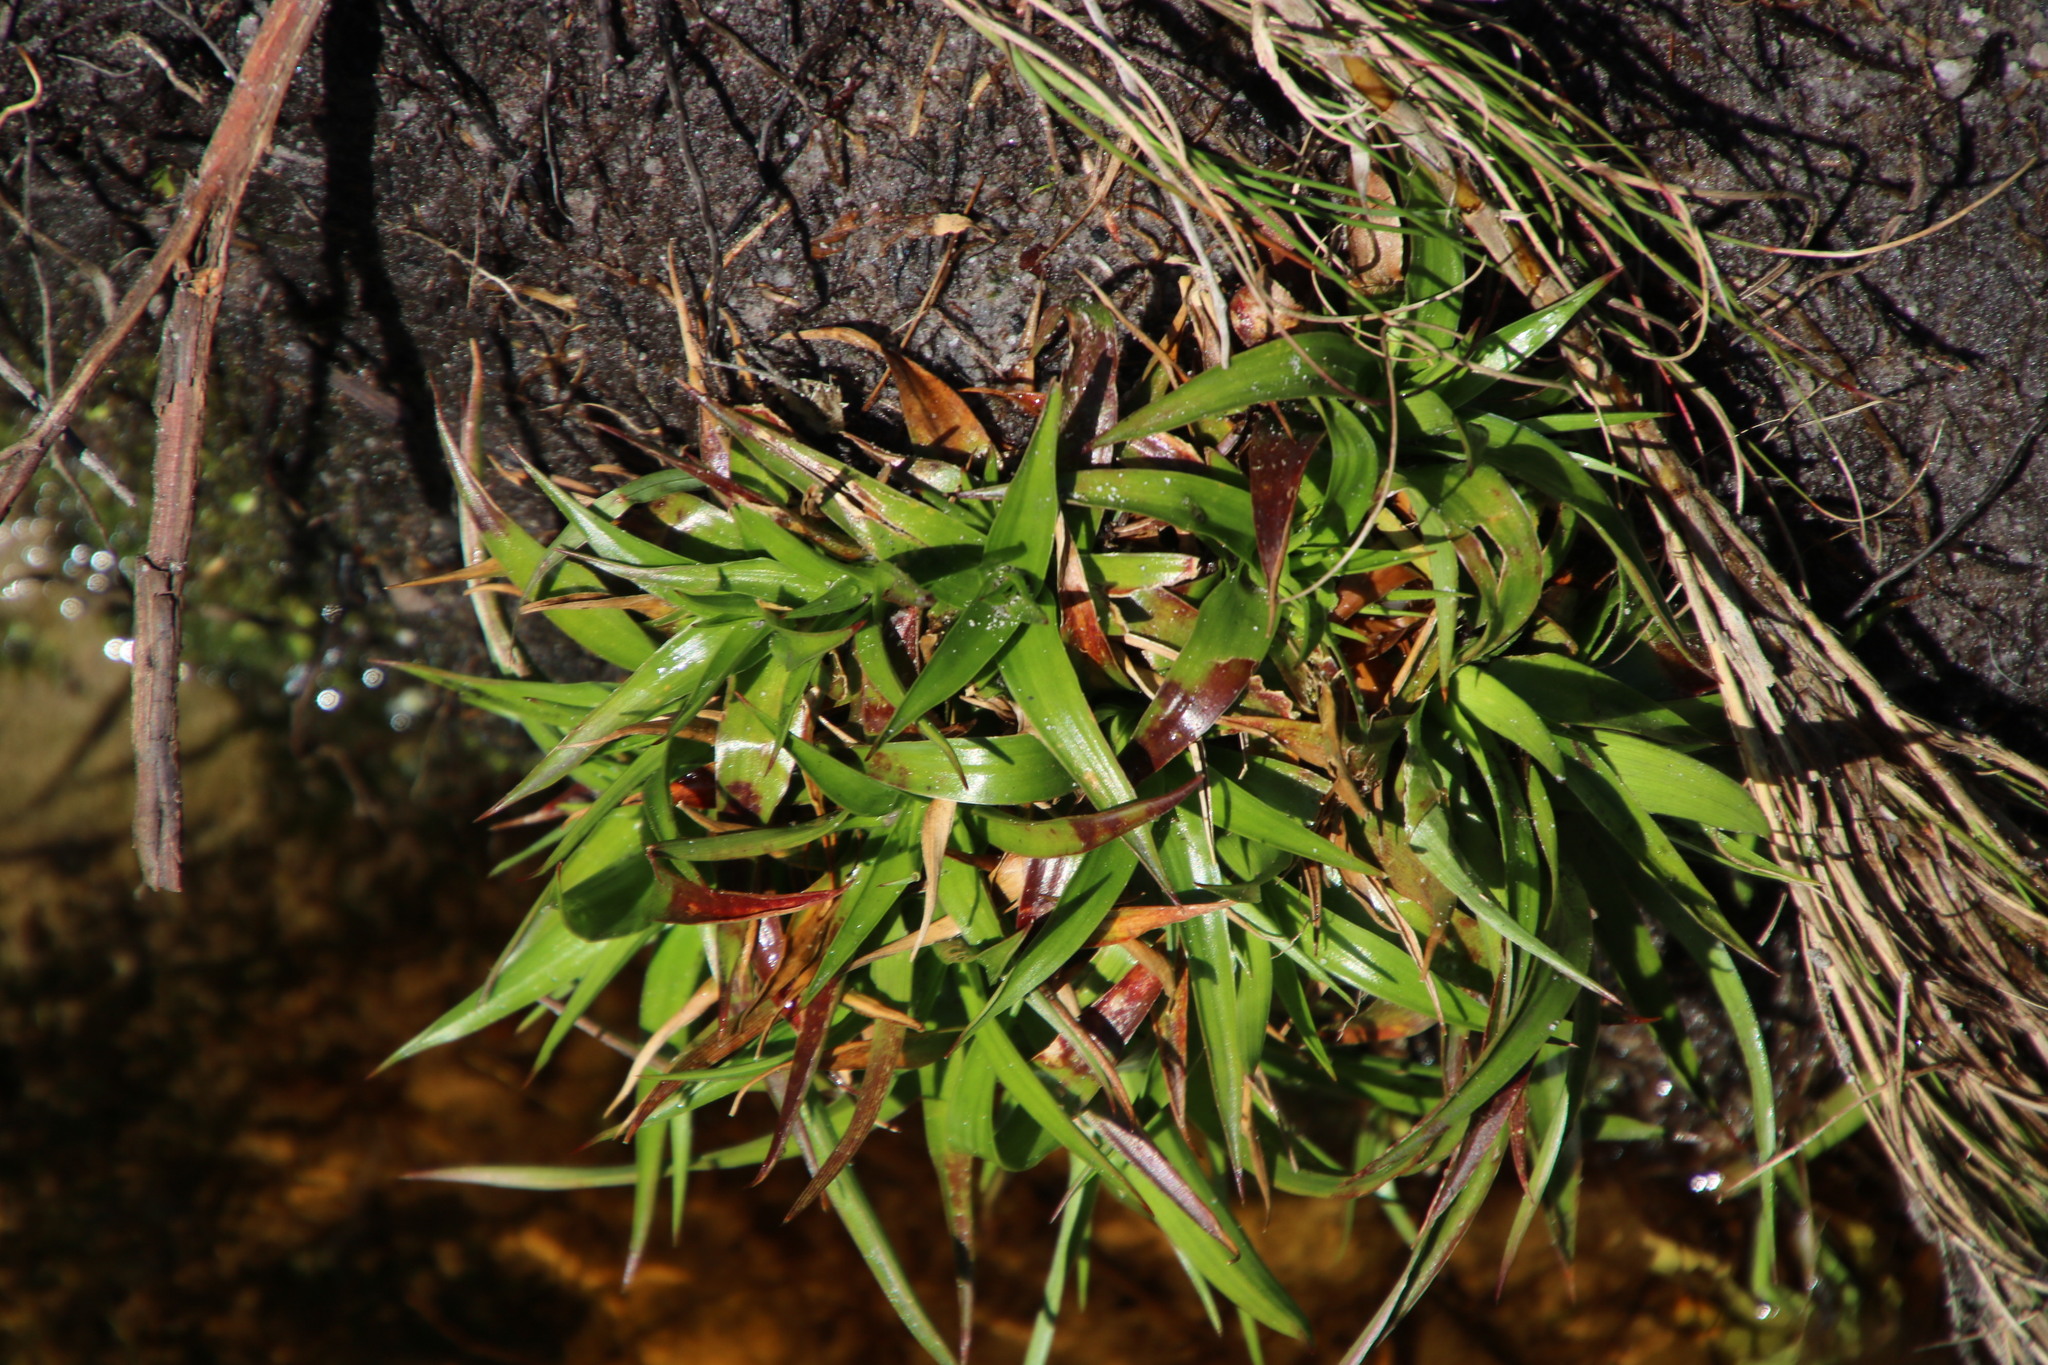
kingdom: Plantae
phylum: Tracheophyta
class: Liliopsida
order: Poales
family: Juncaceae
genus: Juncus
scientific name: Juncus lomatophyllus
